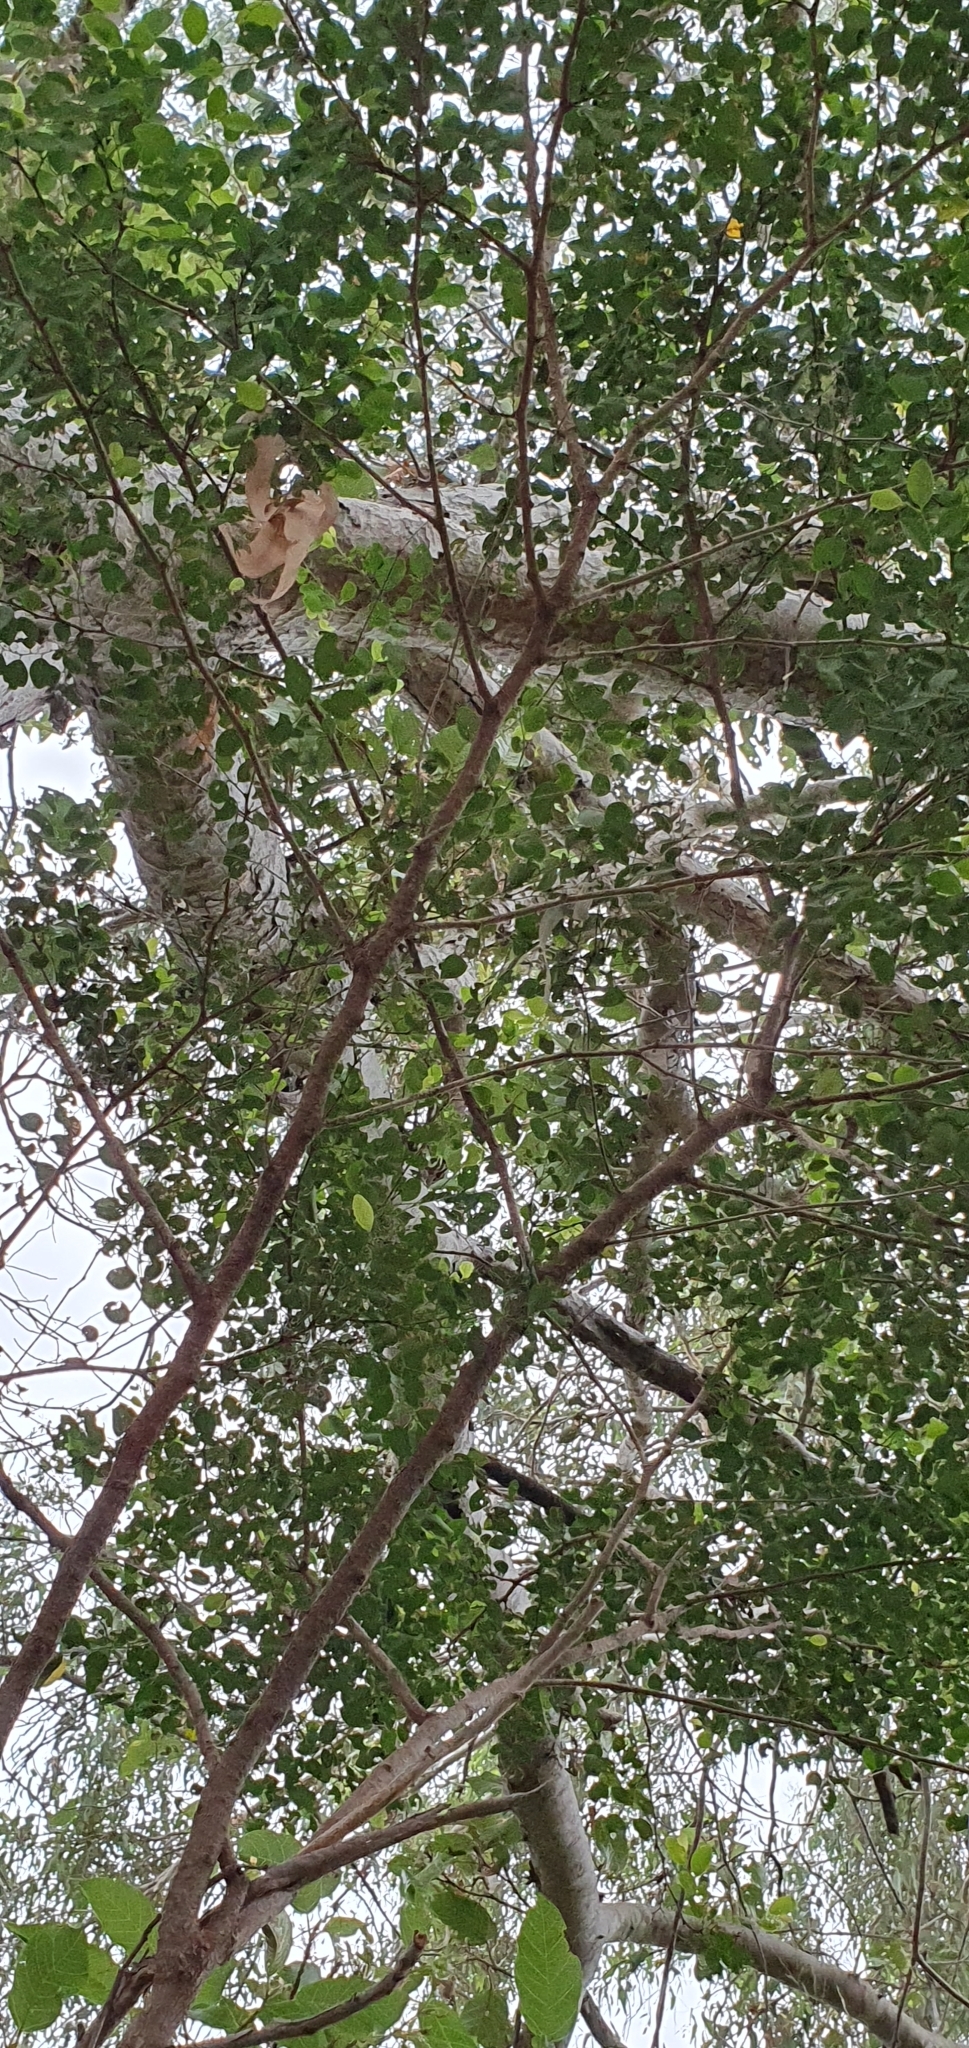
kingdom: Plantae
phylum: Tracheophyta
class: Magnoliopsida
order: Malpighiales
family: Phyllanthaceae
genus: Breynia
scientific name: Breynia oblongifolia
